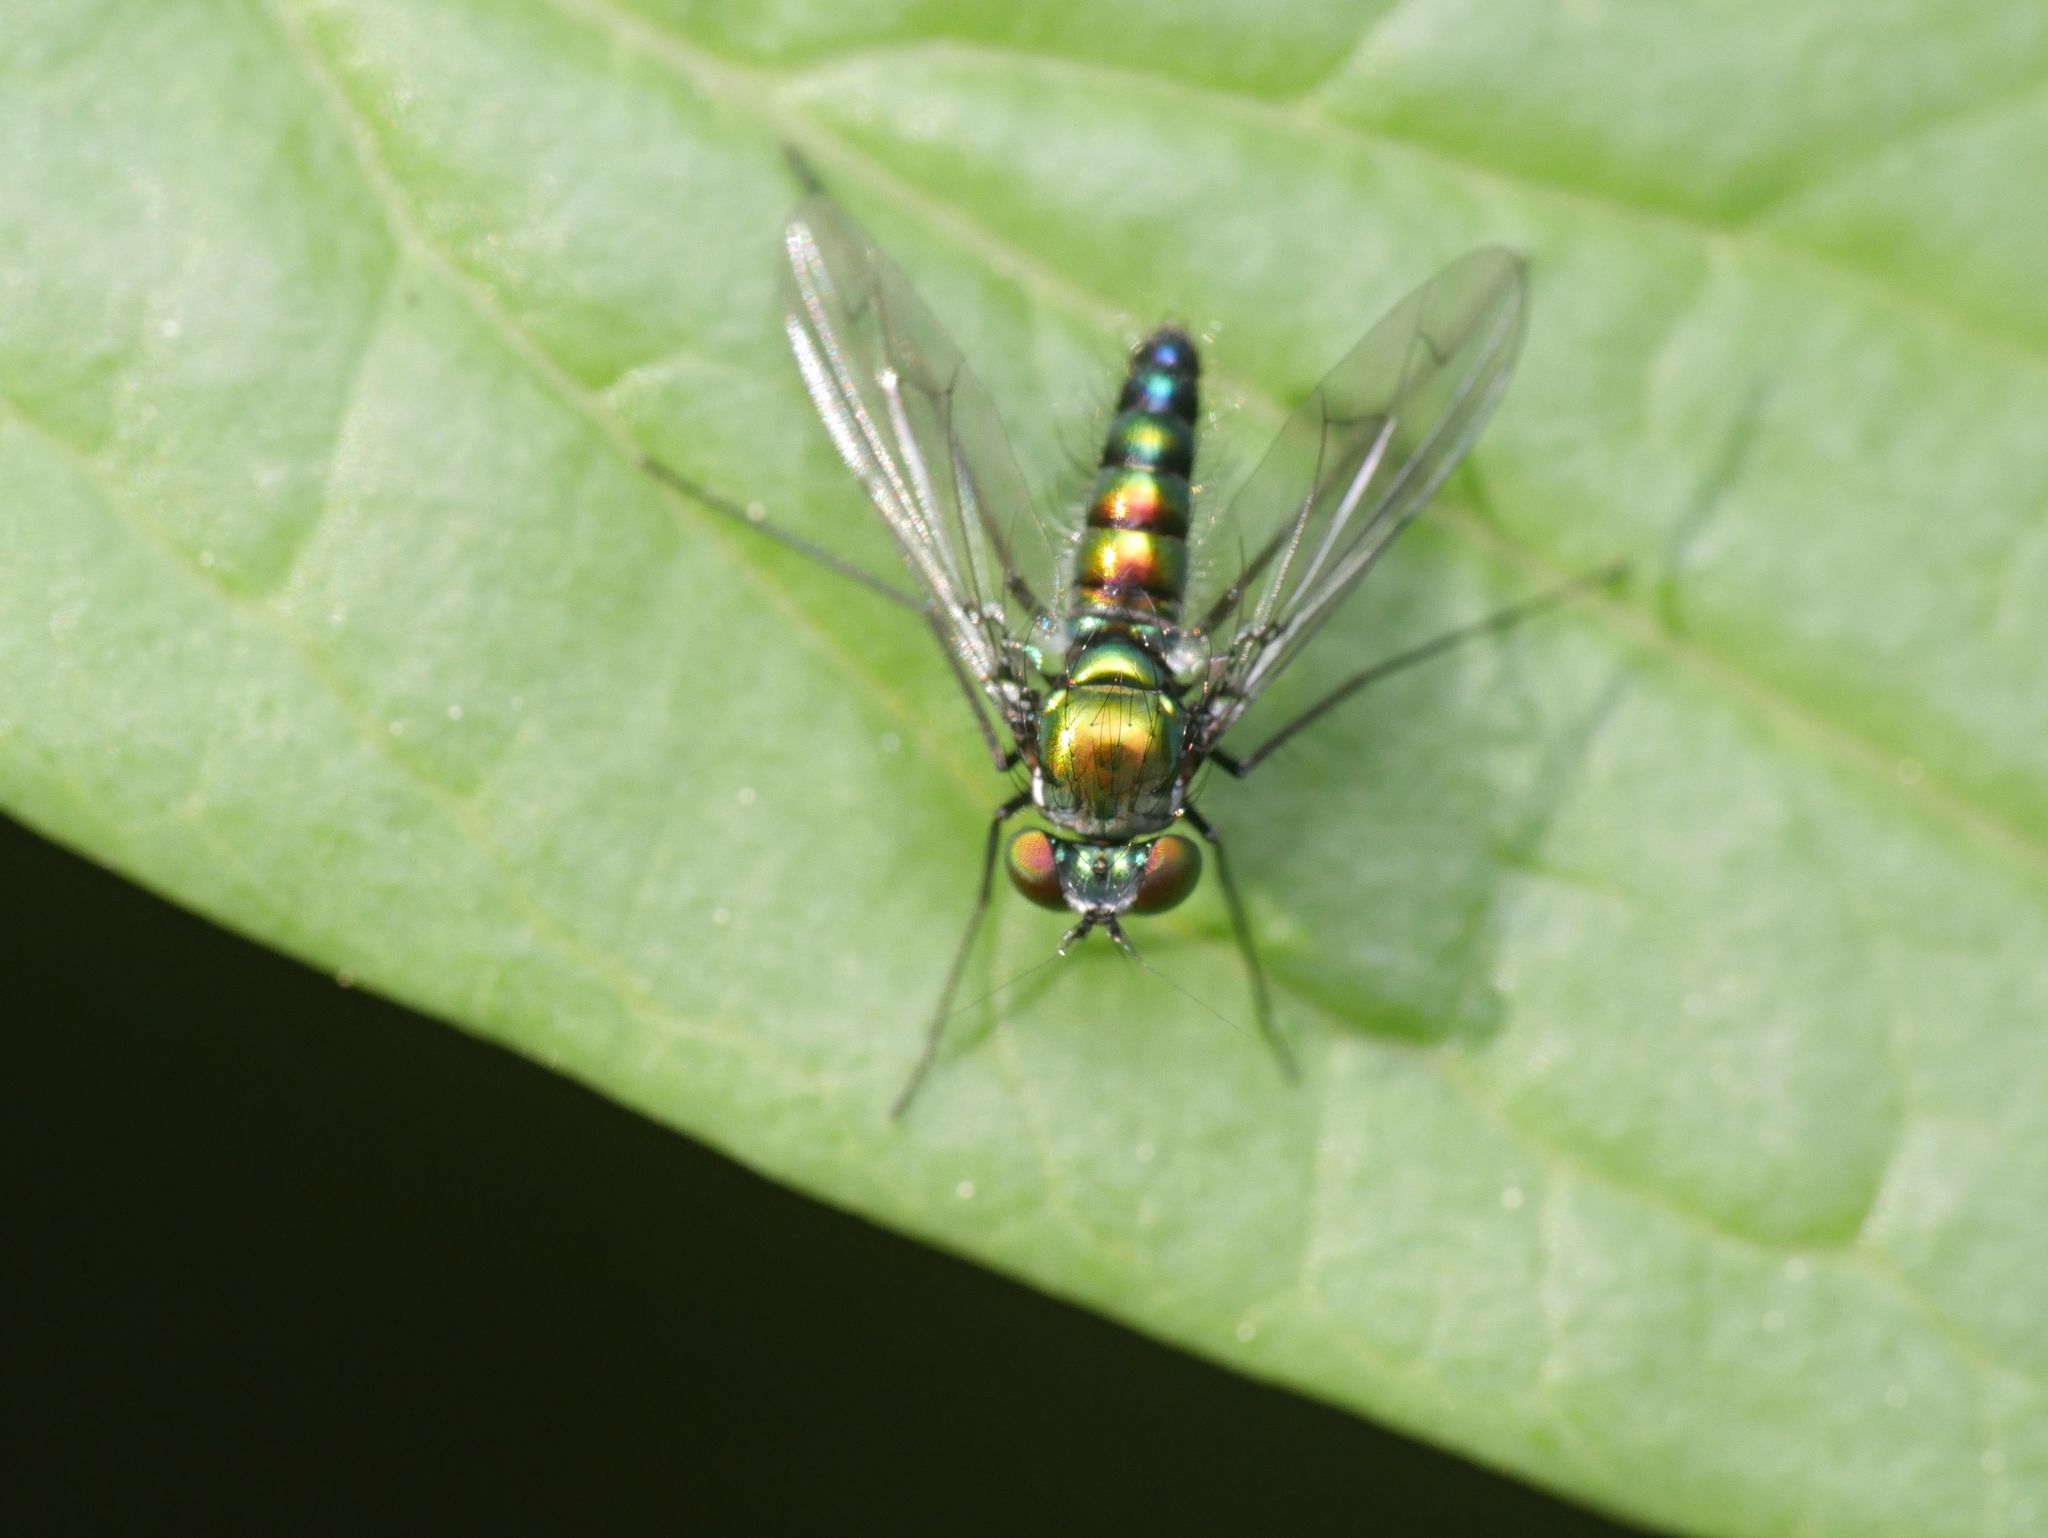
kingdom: Animalia
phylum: Arthropoda
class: Insecta
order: Diptera
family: Dolichopodidae
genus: Condylostylus
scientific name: Condylostylus patibulatus
